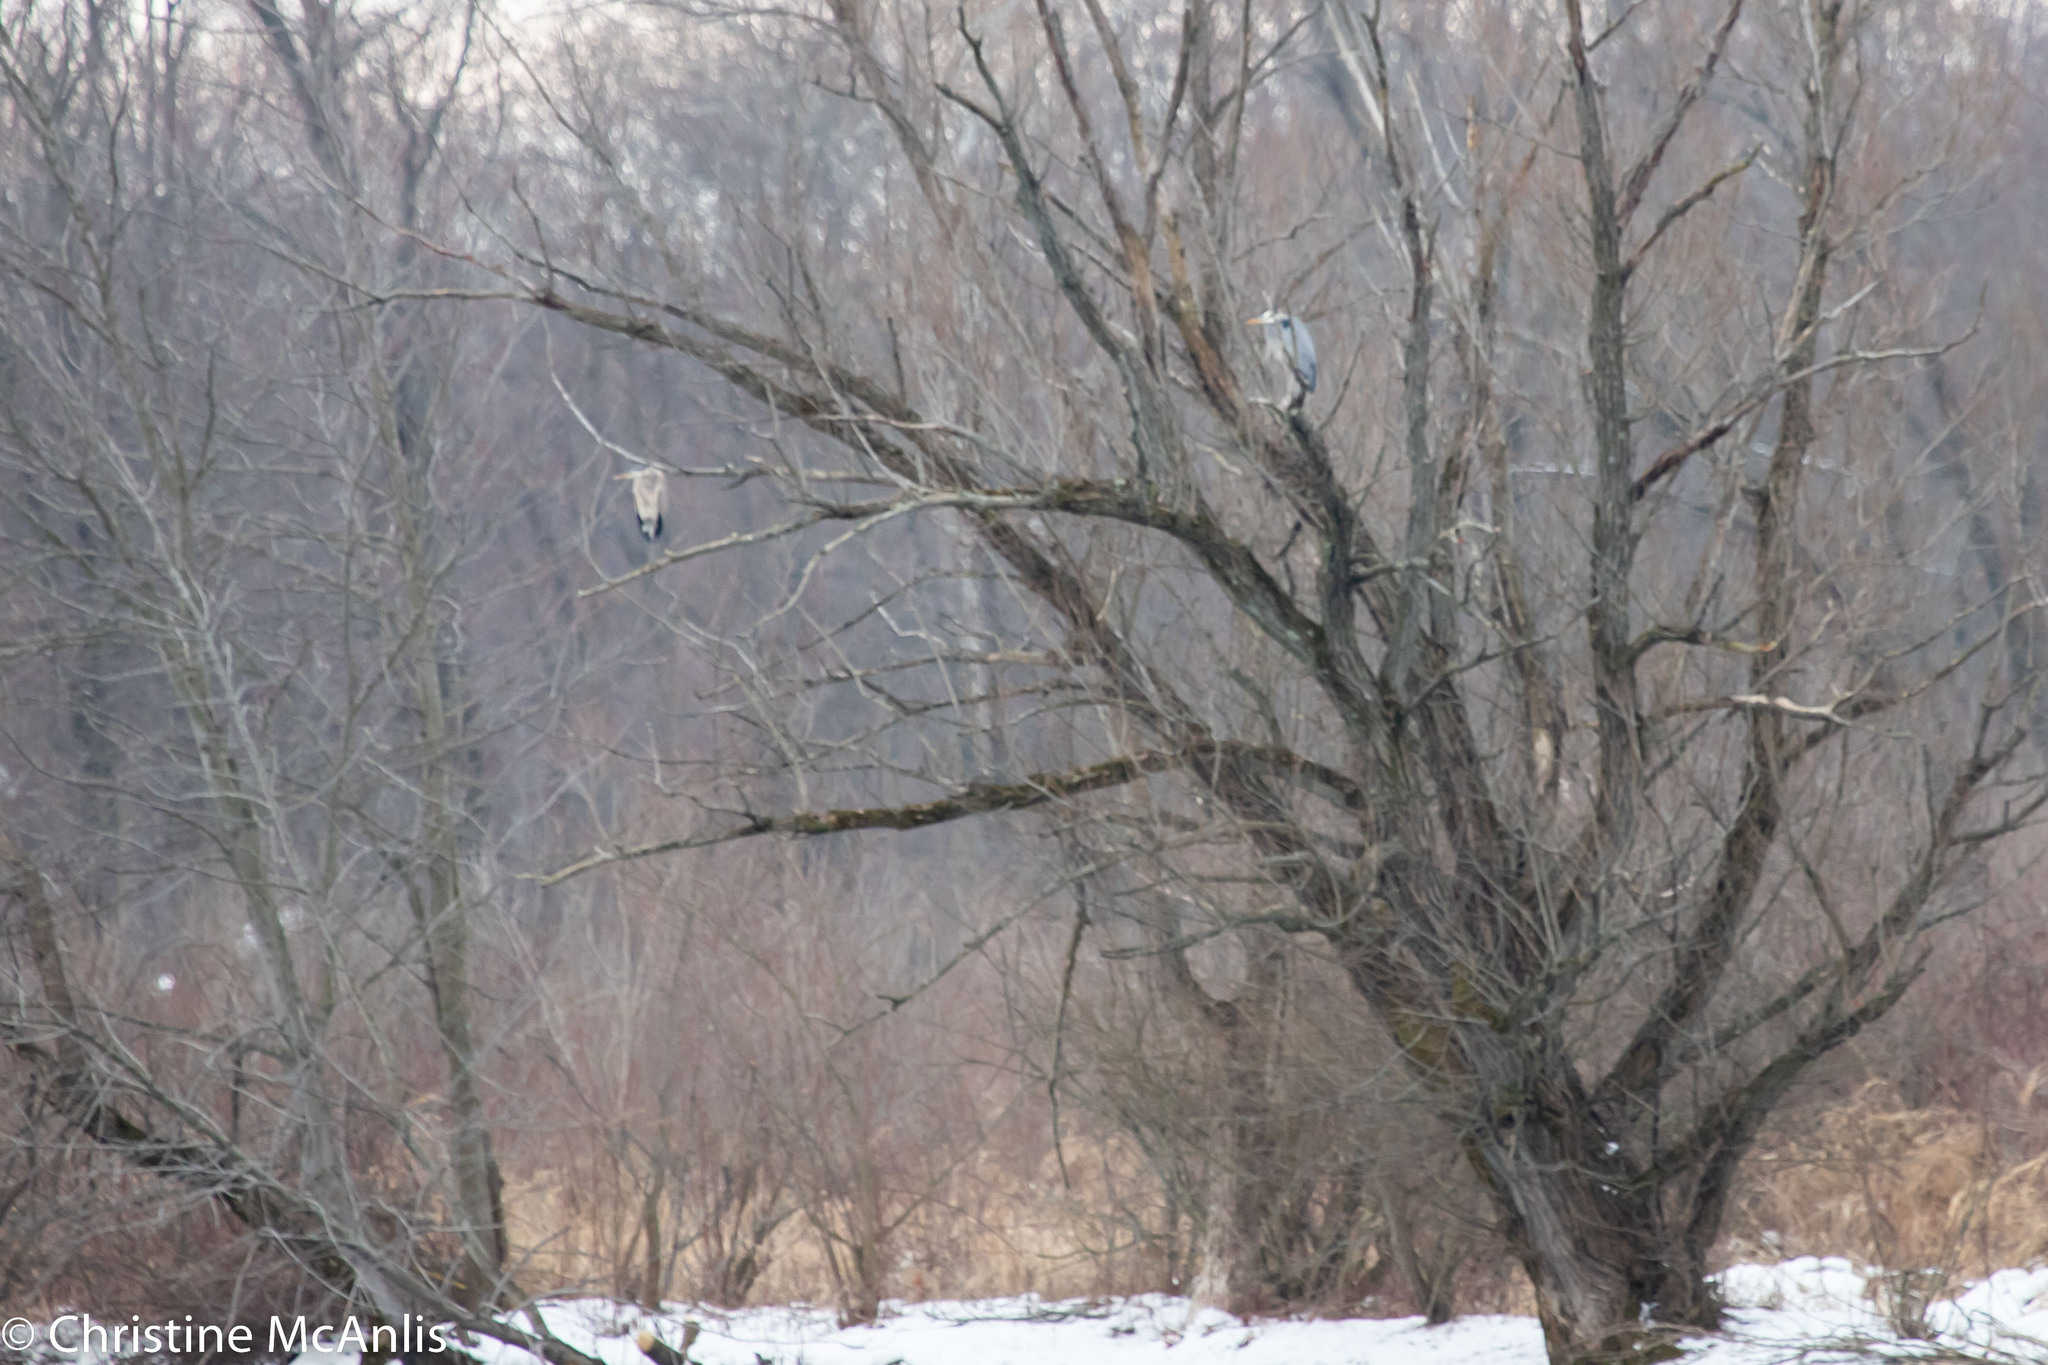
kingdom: Animalia
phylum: Chordata
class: Aves
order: Pelecaniformes
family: Ardeidae
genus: Ardea
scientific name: Ardea herodias
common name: Great blue heron
